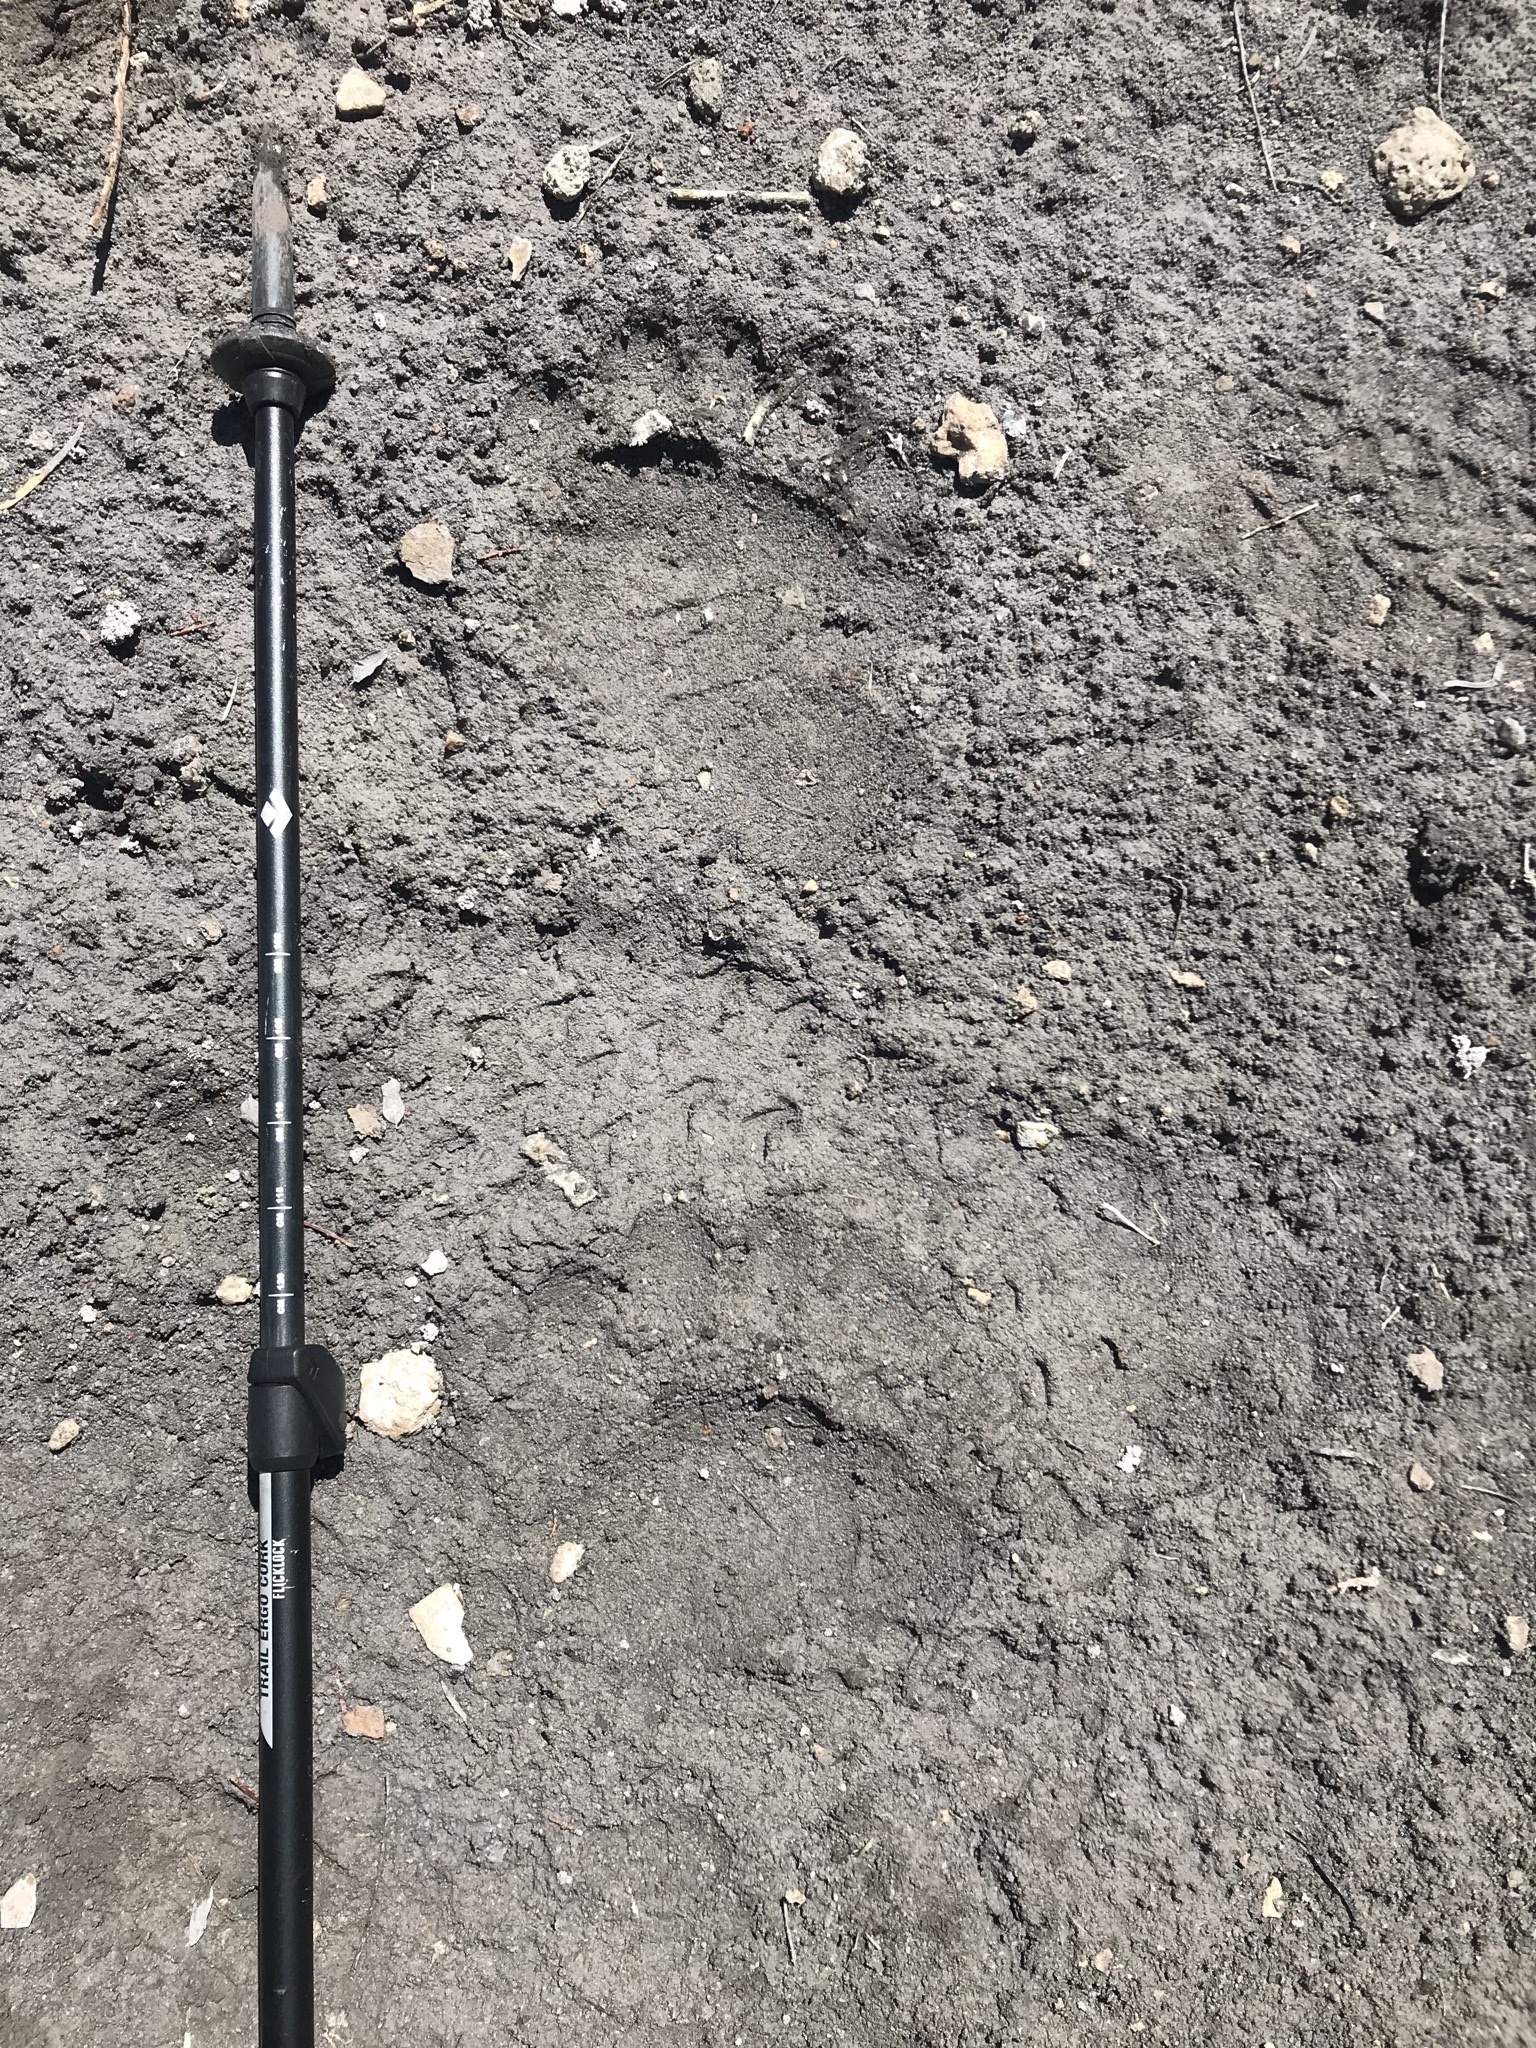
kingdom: Animalia
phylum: Chordata
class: Mammalia
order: Carnivora
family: Ursidae
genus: Ursus
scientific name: Ursus americanus
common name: American black bear
